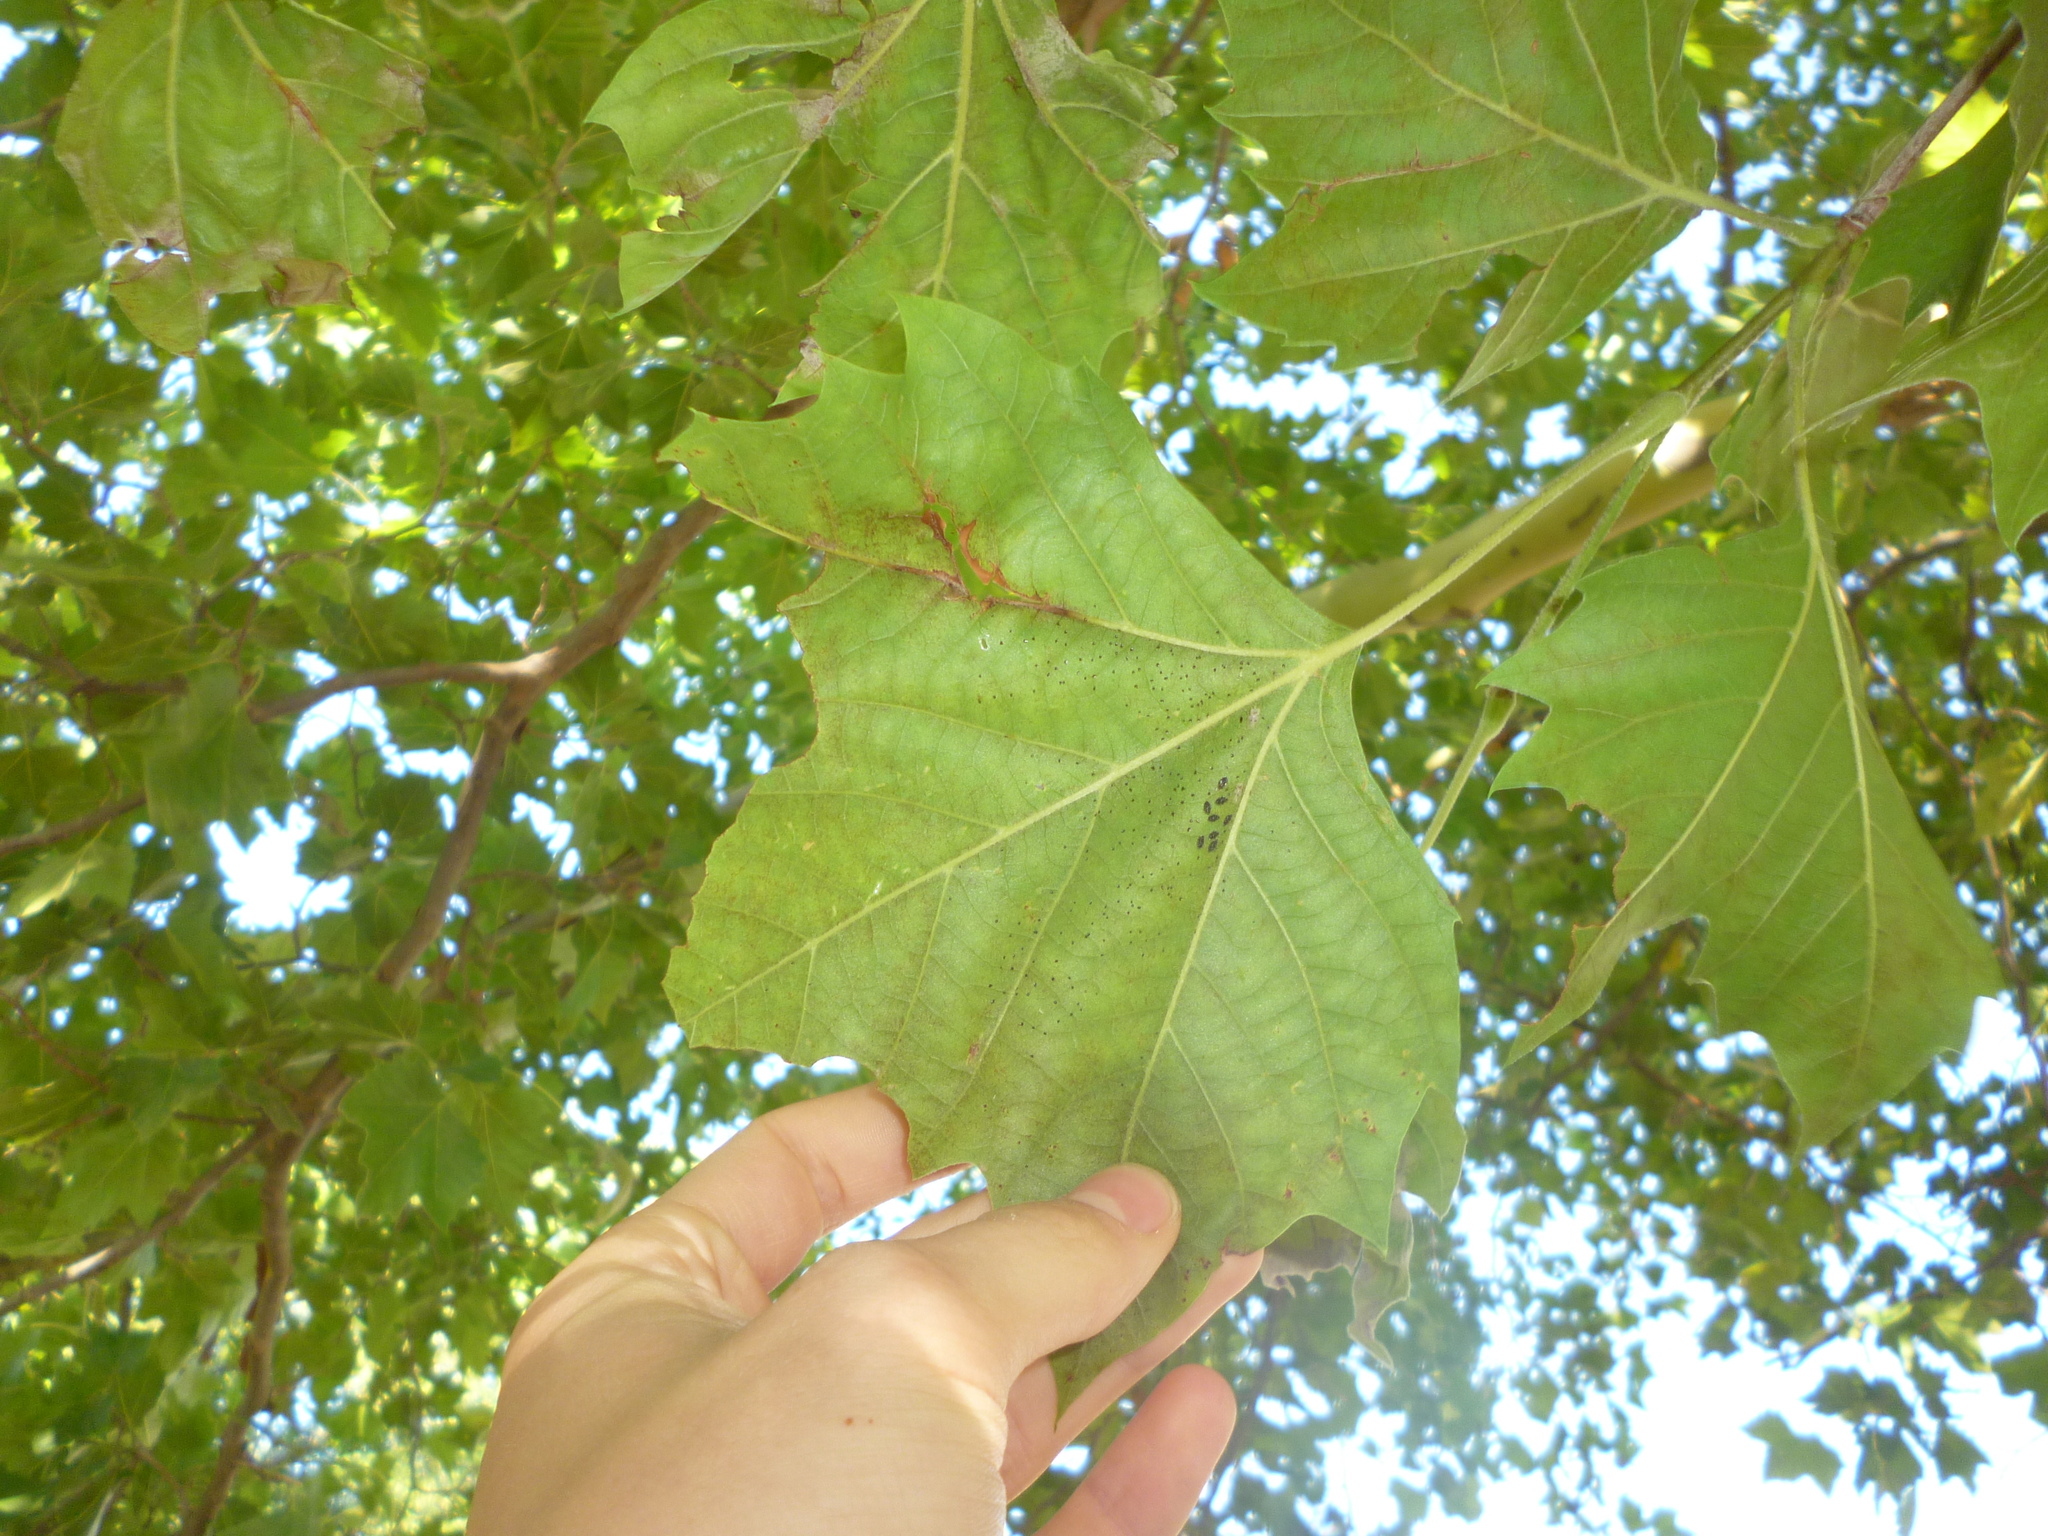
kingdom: Plantae
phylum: Tracheophyta
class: Magnoliopsida
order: Proteales
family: Platanaceae
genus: Platanus
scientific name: Platanus occidentalis
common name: American sycamore
